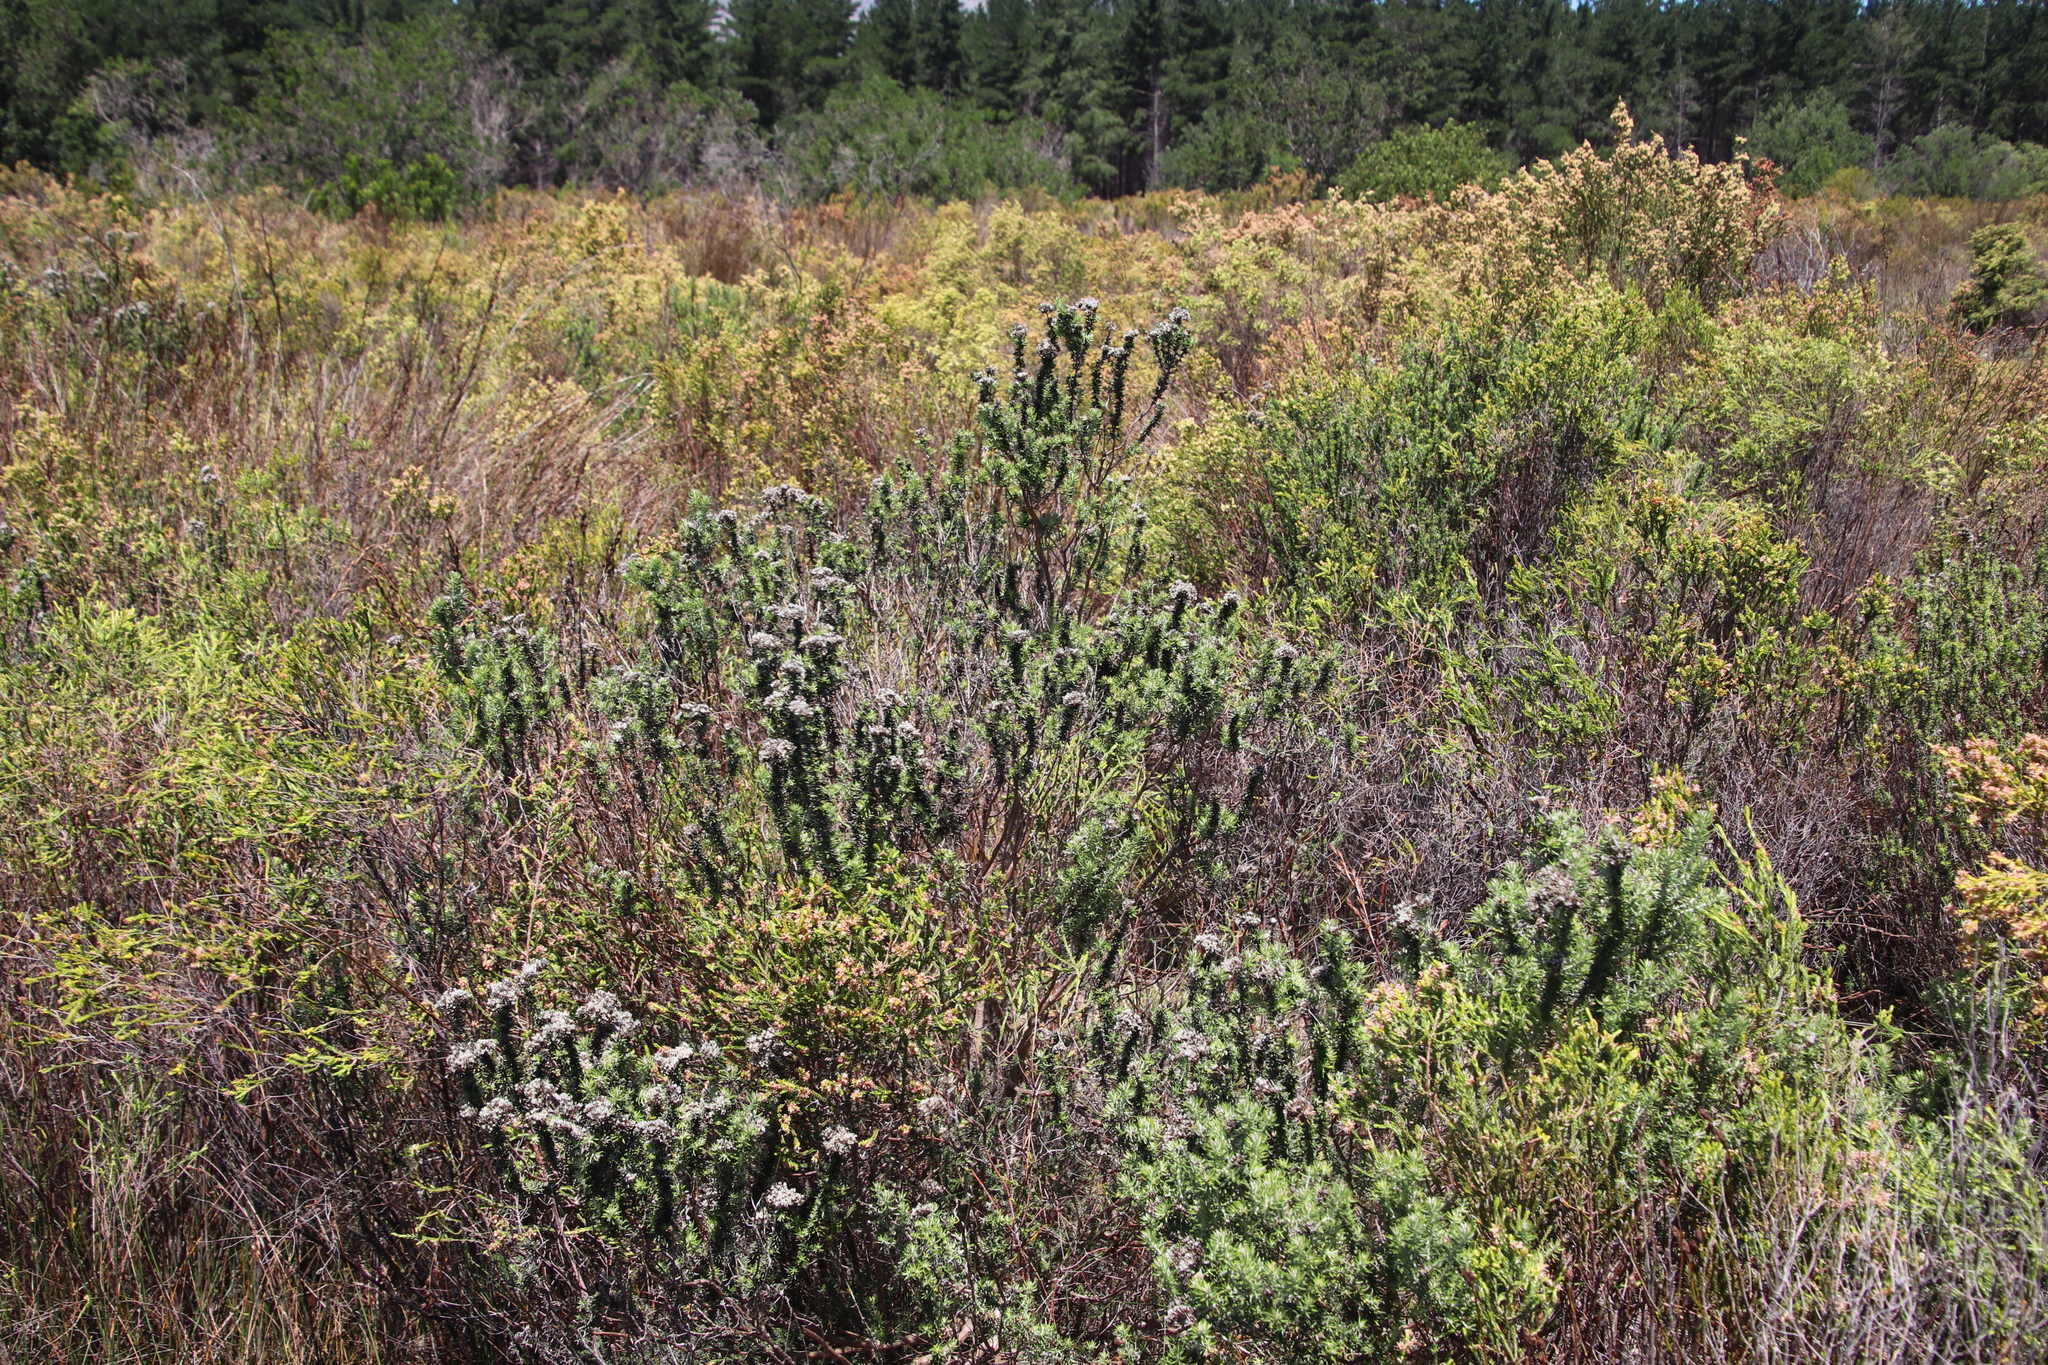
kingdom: Plantae
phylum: Tracheophyta
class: Magnoliopsida
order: Asterales
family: Asteraceae
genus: Metalasia
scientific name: Metalasia densa
